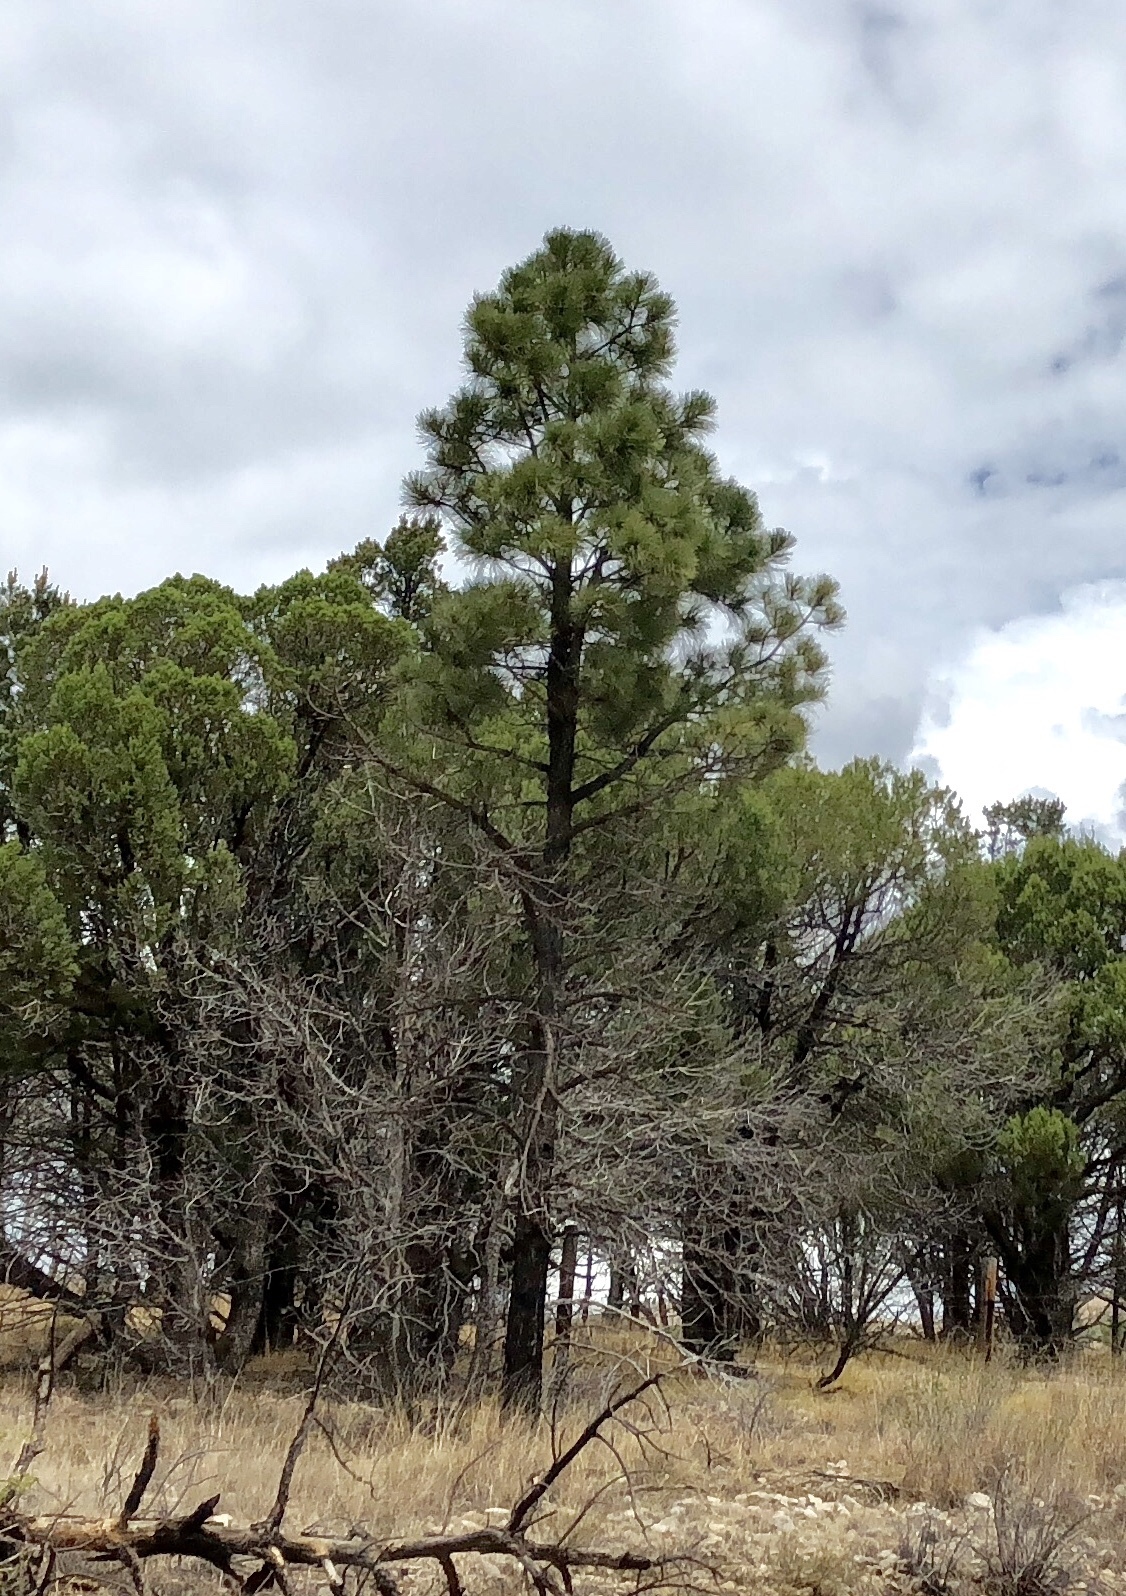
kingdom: Plantae
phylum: Tracheophyta
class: Pinopsida
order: Pinales
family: Pinaceae
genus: Pinus
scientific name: Pinus ponderosa
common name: Western yellow-pine
